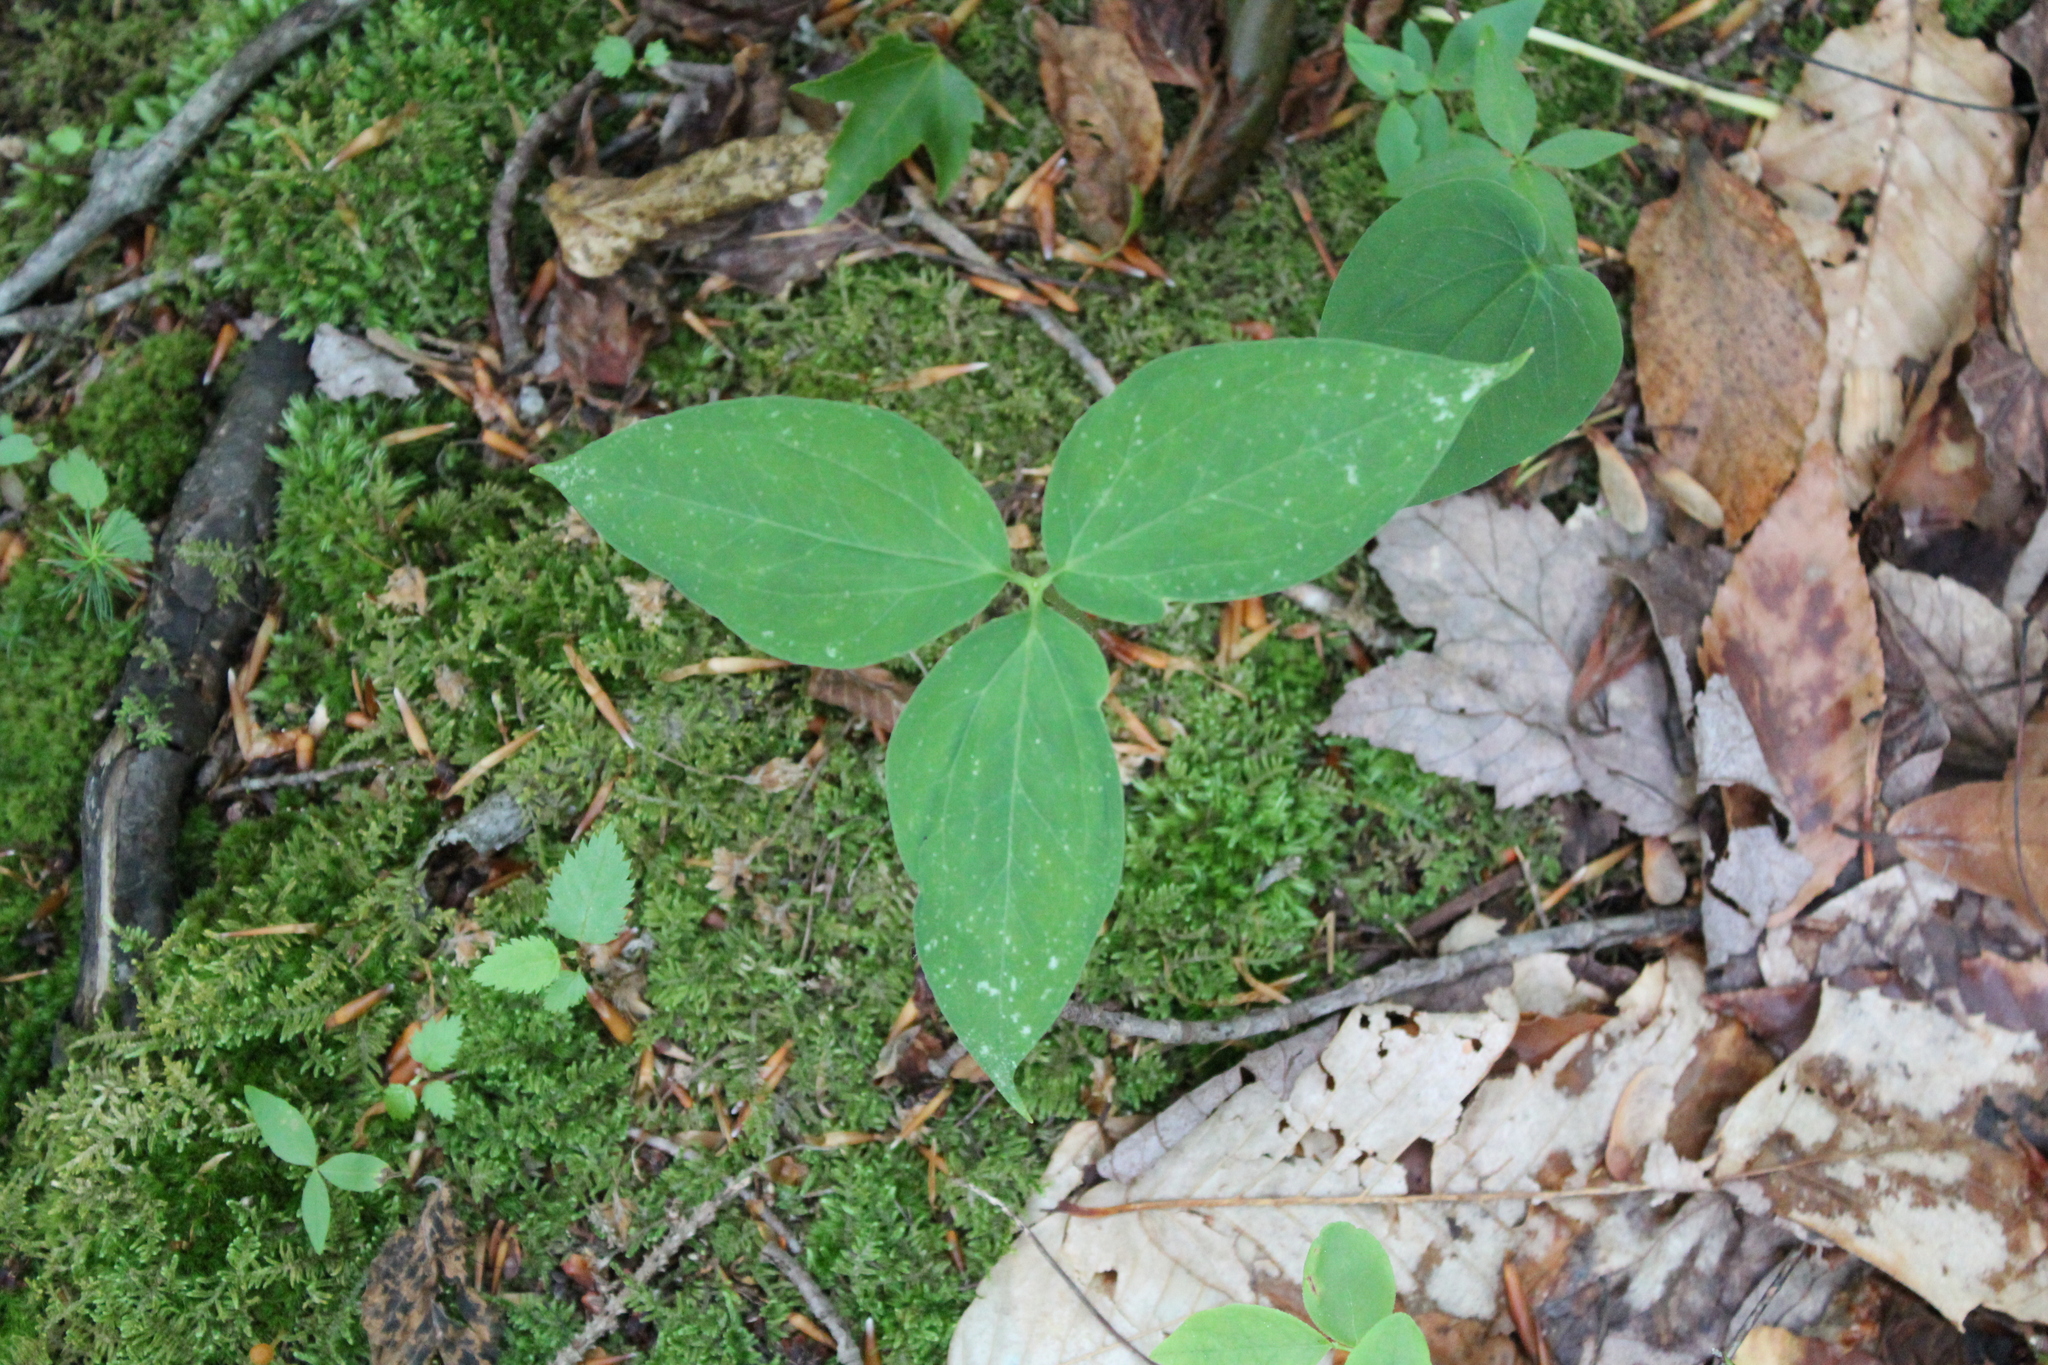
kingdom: Plantae
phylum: Tracheophyta
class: Liliopsida
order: Liliales
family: Melanthiaceae
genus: Trillium
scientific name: Trillium undulatum
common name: Paint trillium
